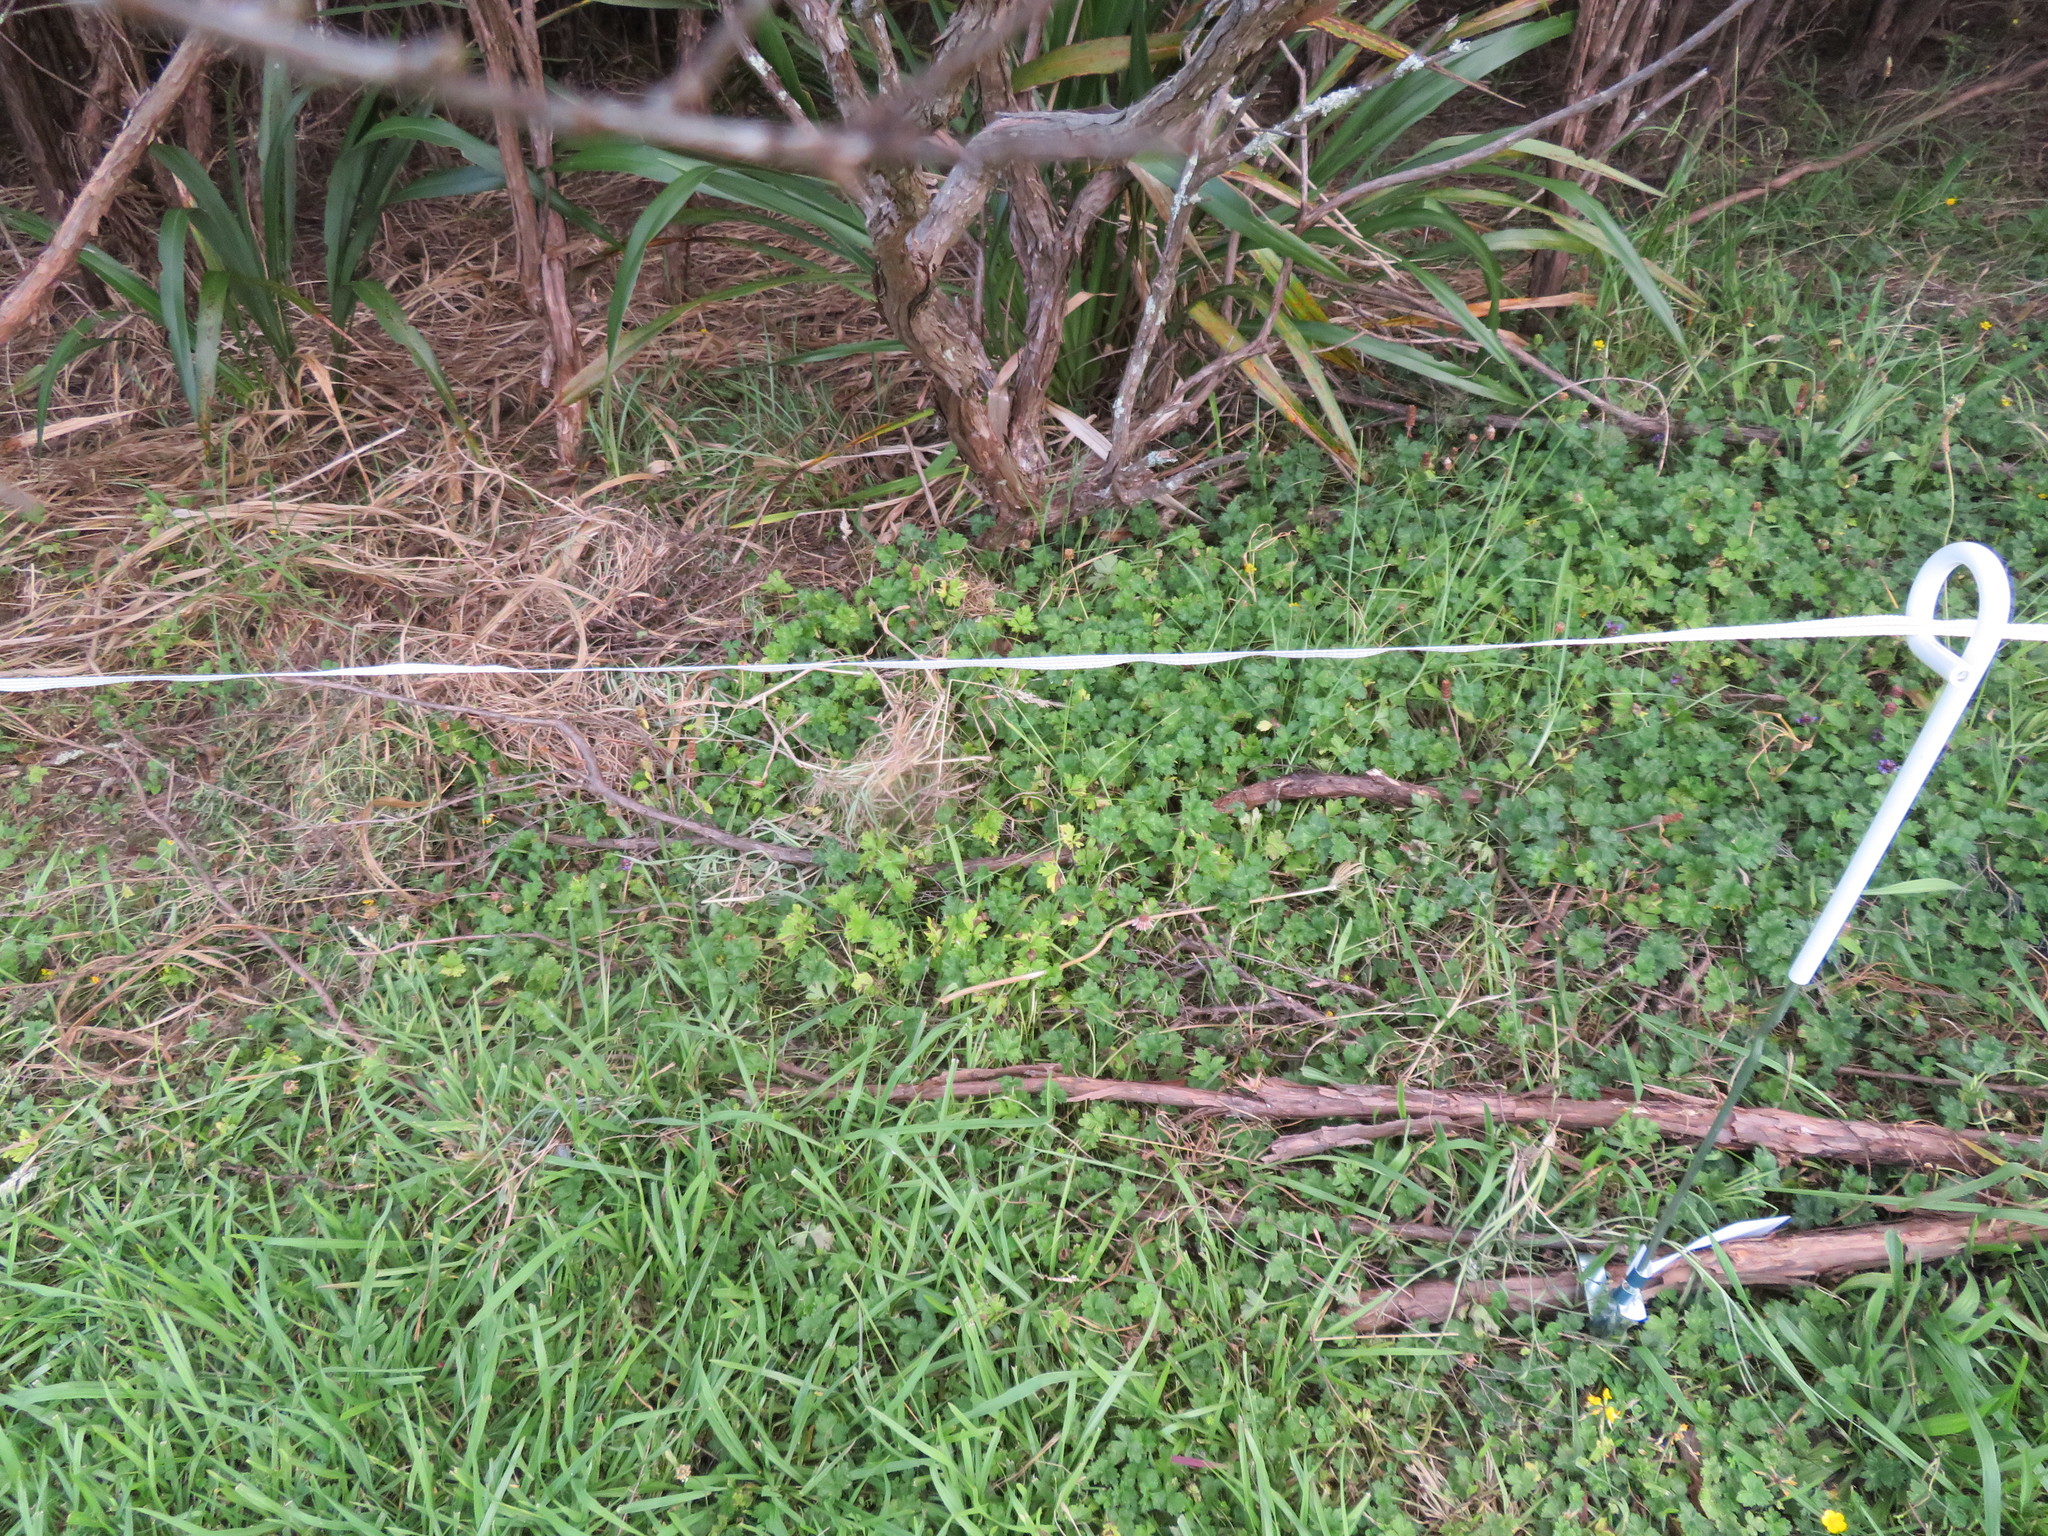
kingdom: Plantae
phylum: Tracheophyta
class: Magnoliopsida
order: Ranunculales
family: Ranunculaceae
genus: Ranunculus
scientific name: Ranunculus repens
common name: Creeping buttercup
